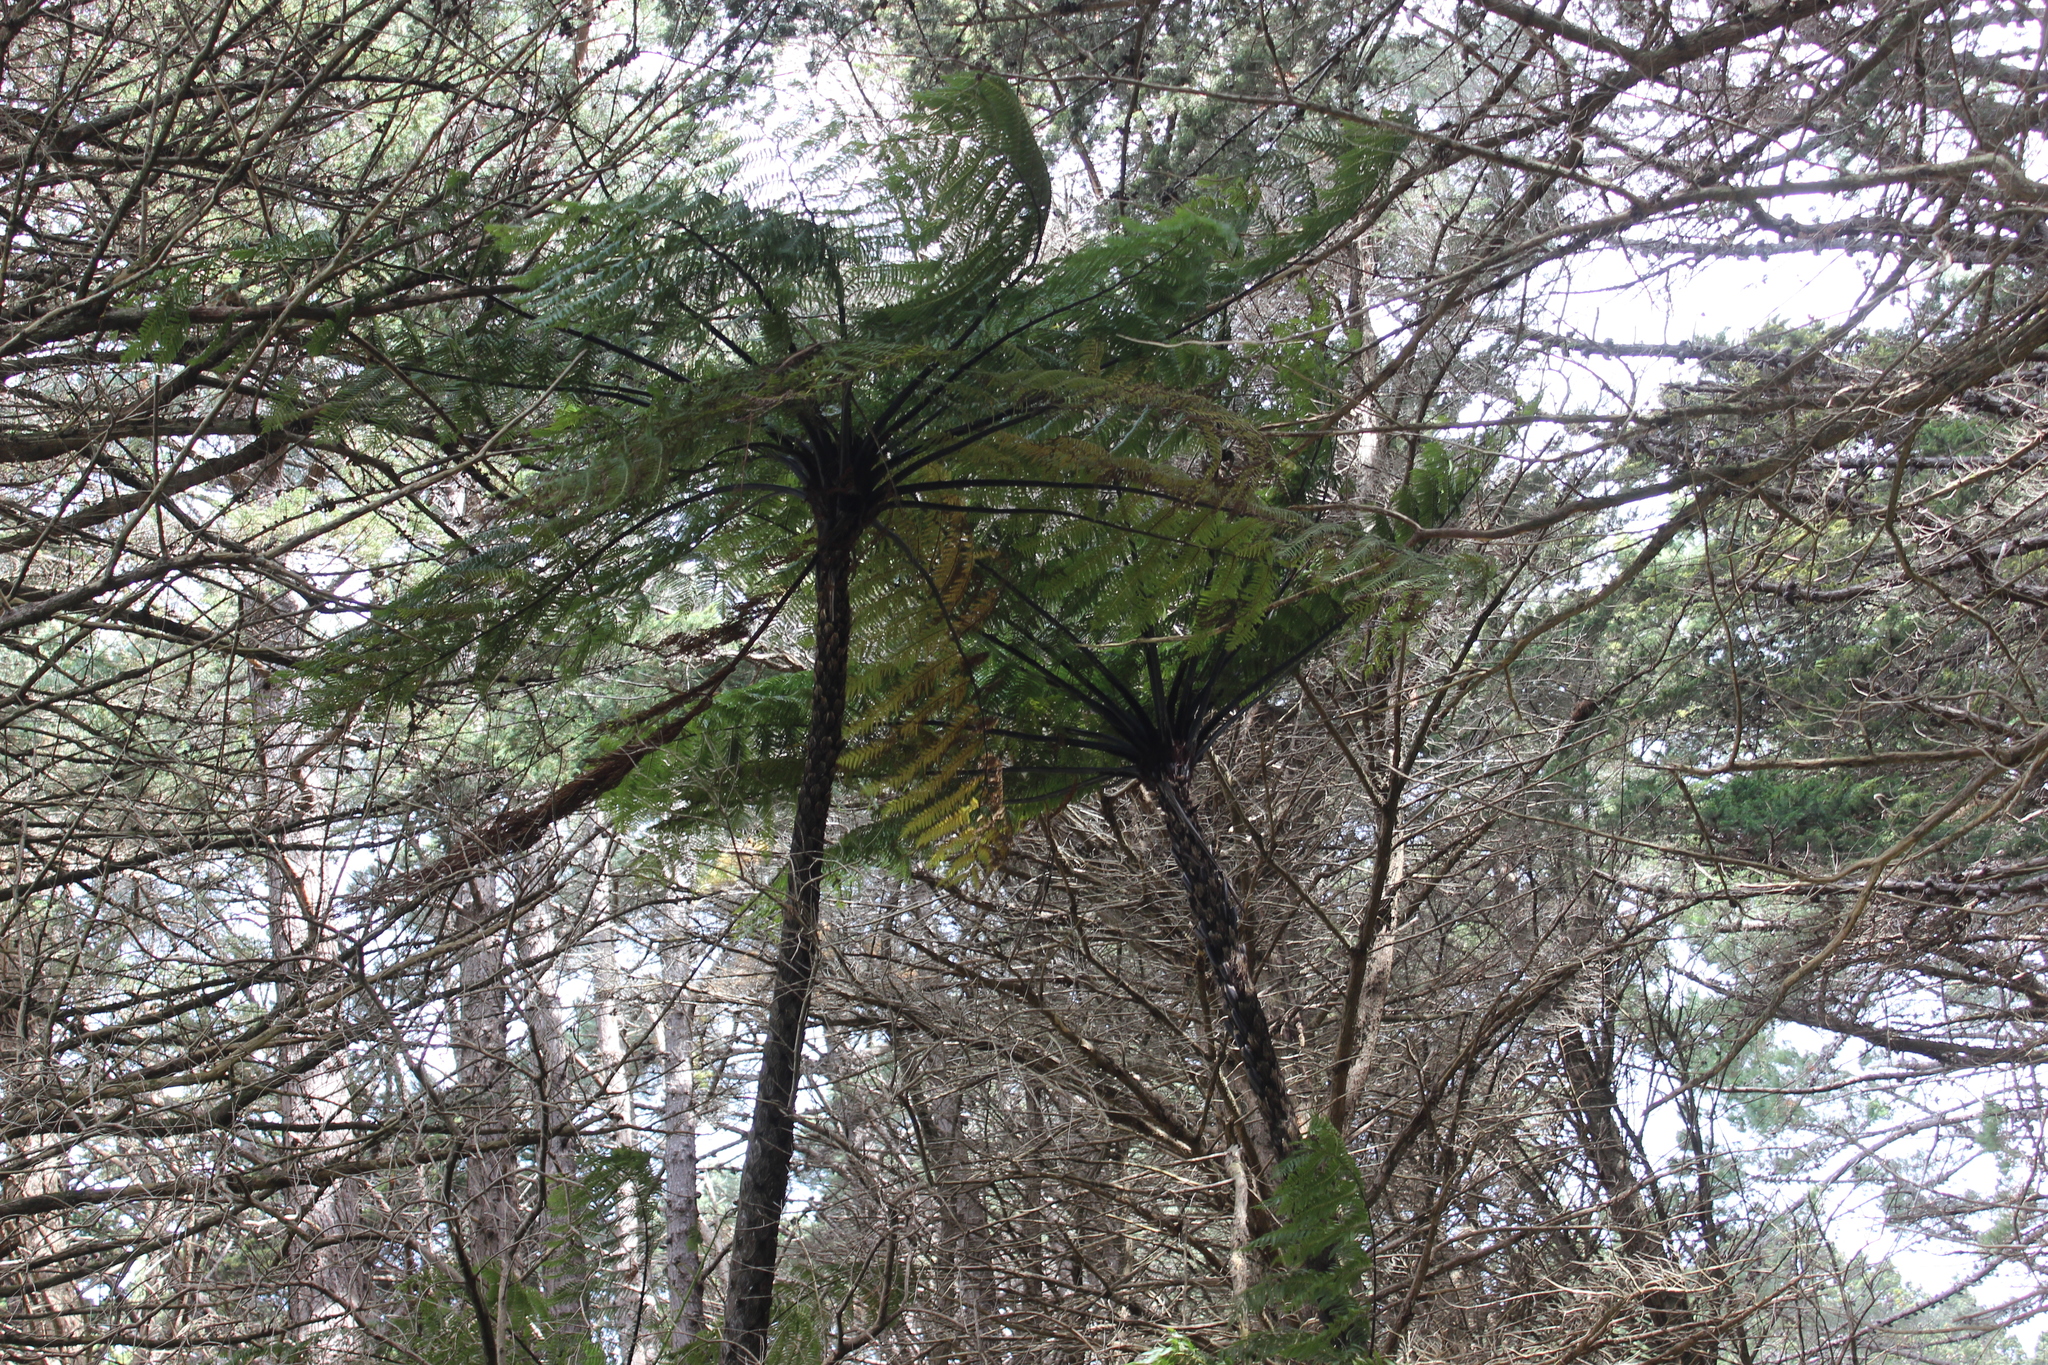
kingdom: Plantae
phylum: Tracheophyta
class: Polypodiopsida
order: Cyatheales
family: Cyatheaceae
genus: Sphaeropteris
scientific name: Sphaeropteris medullaris
